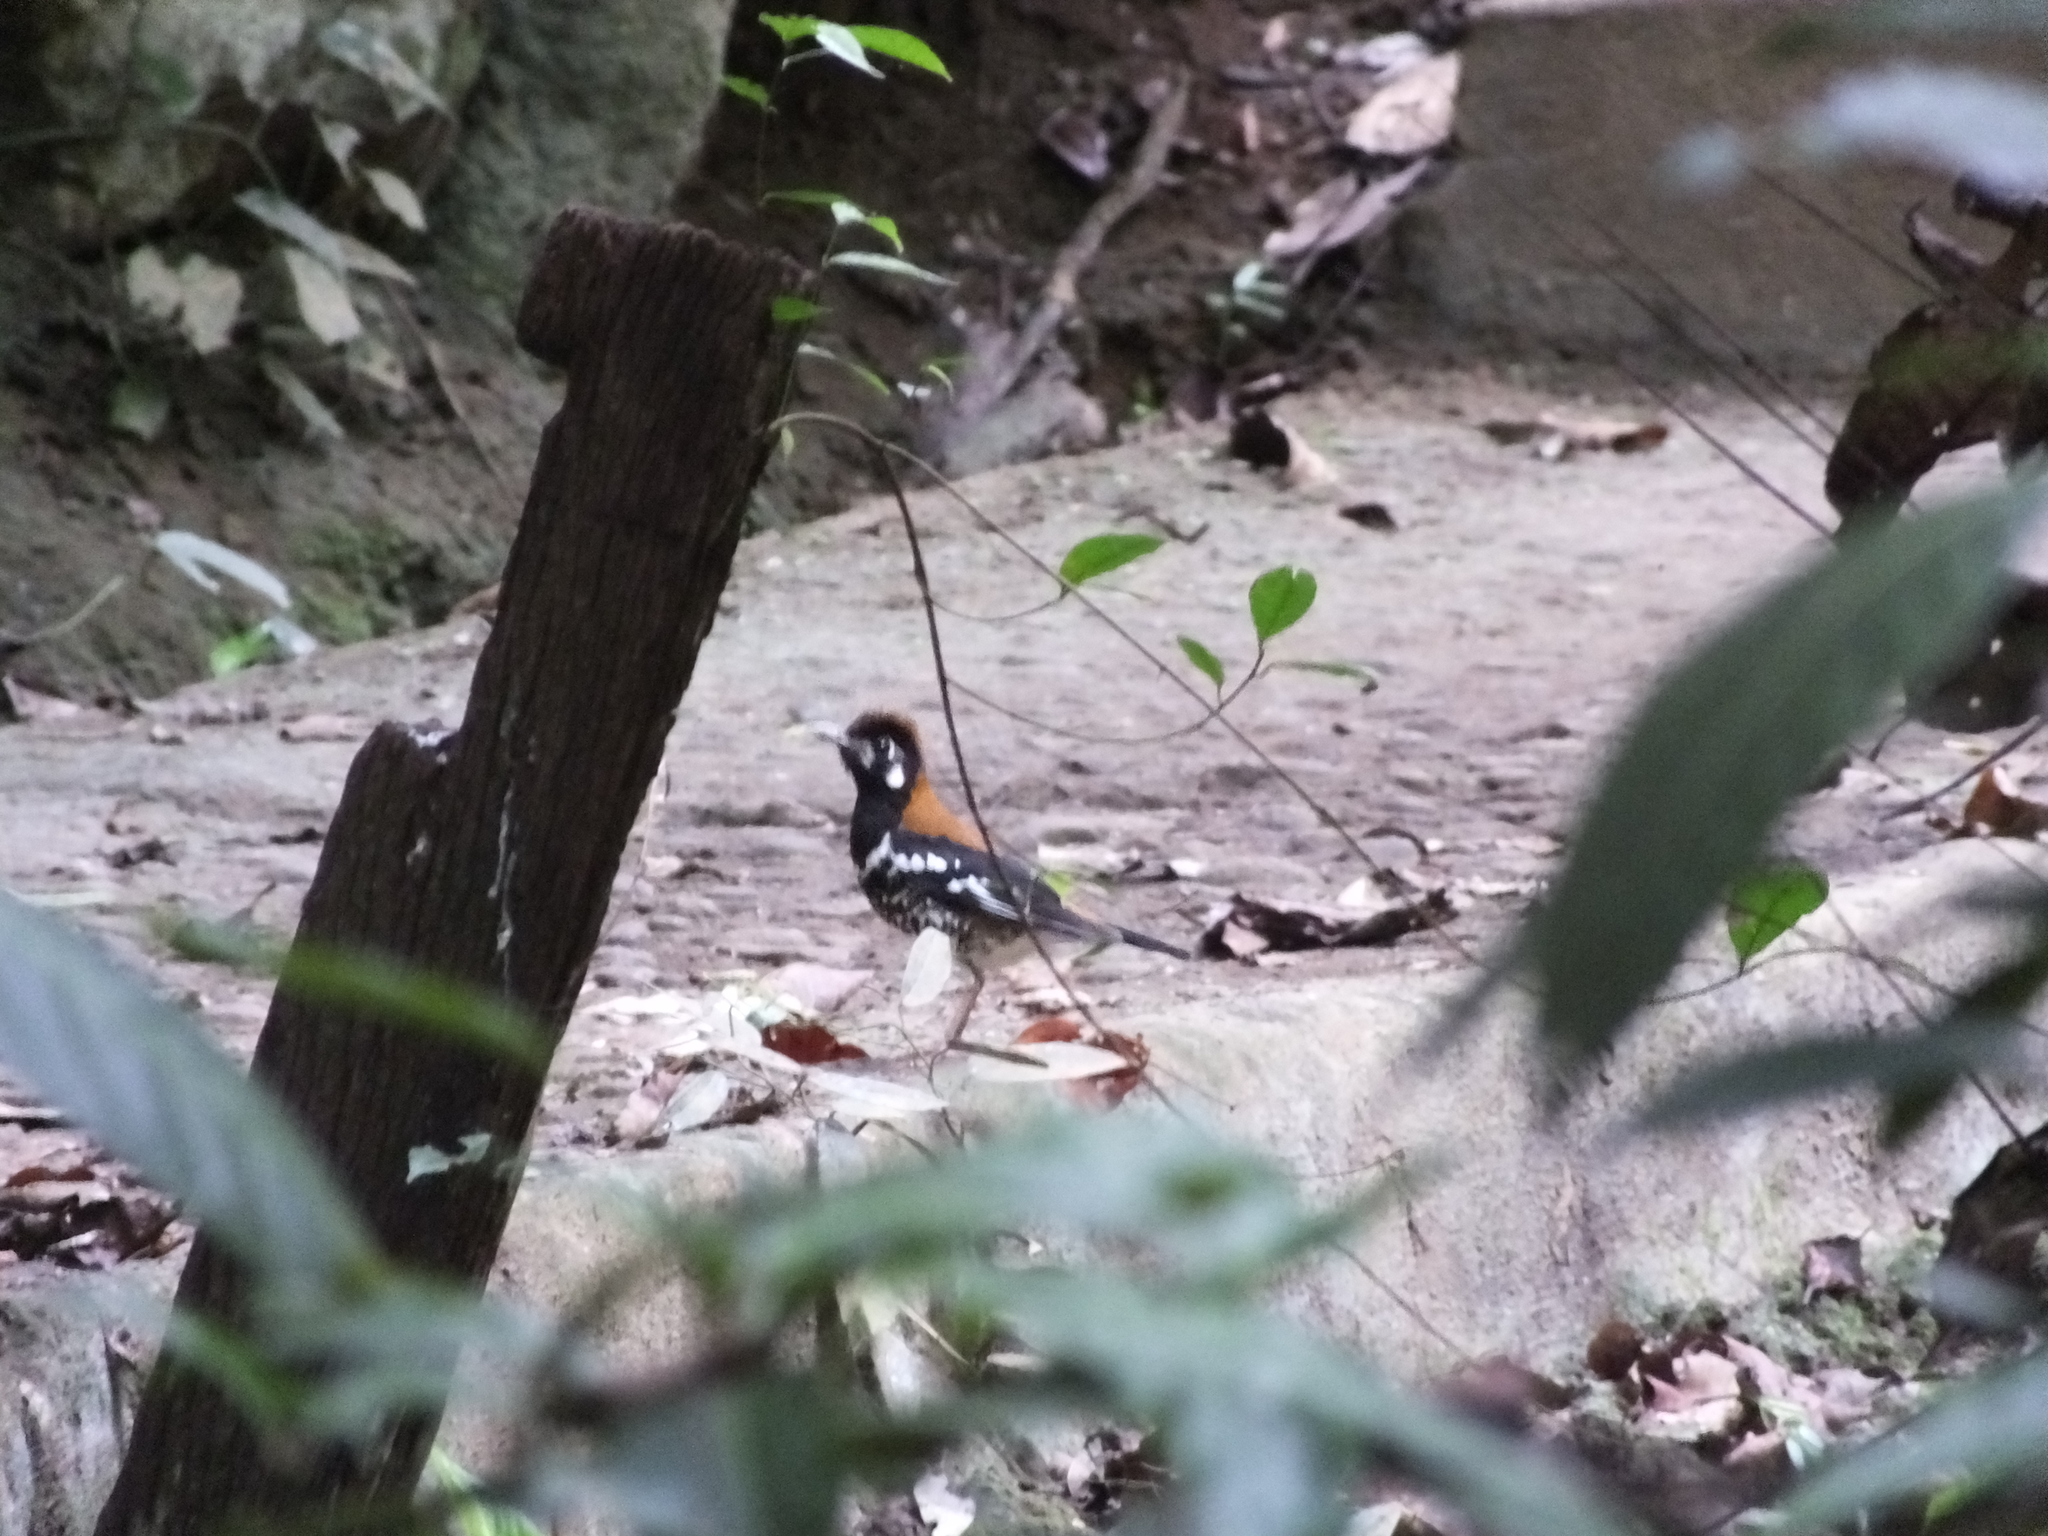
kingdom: Animalia
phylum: Chordata
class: Aves
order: Passeriformes
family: Turdidae
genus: Geokichla
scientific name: Geokichla erythronota
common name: Red-backed thrush
